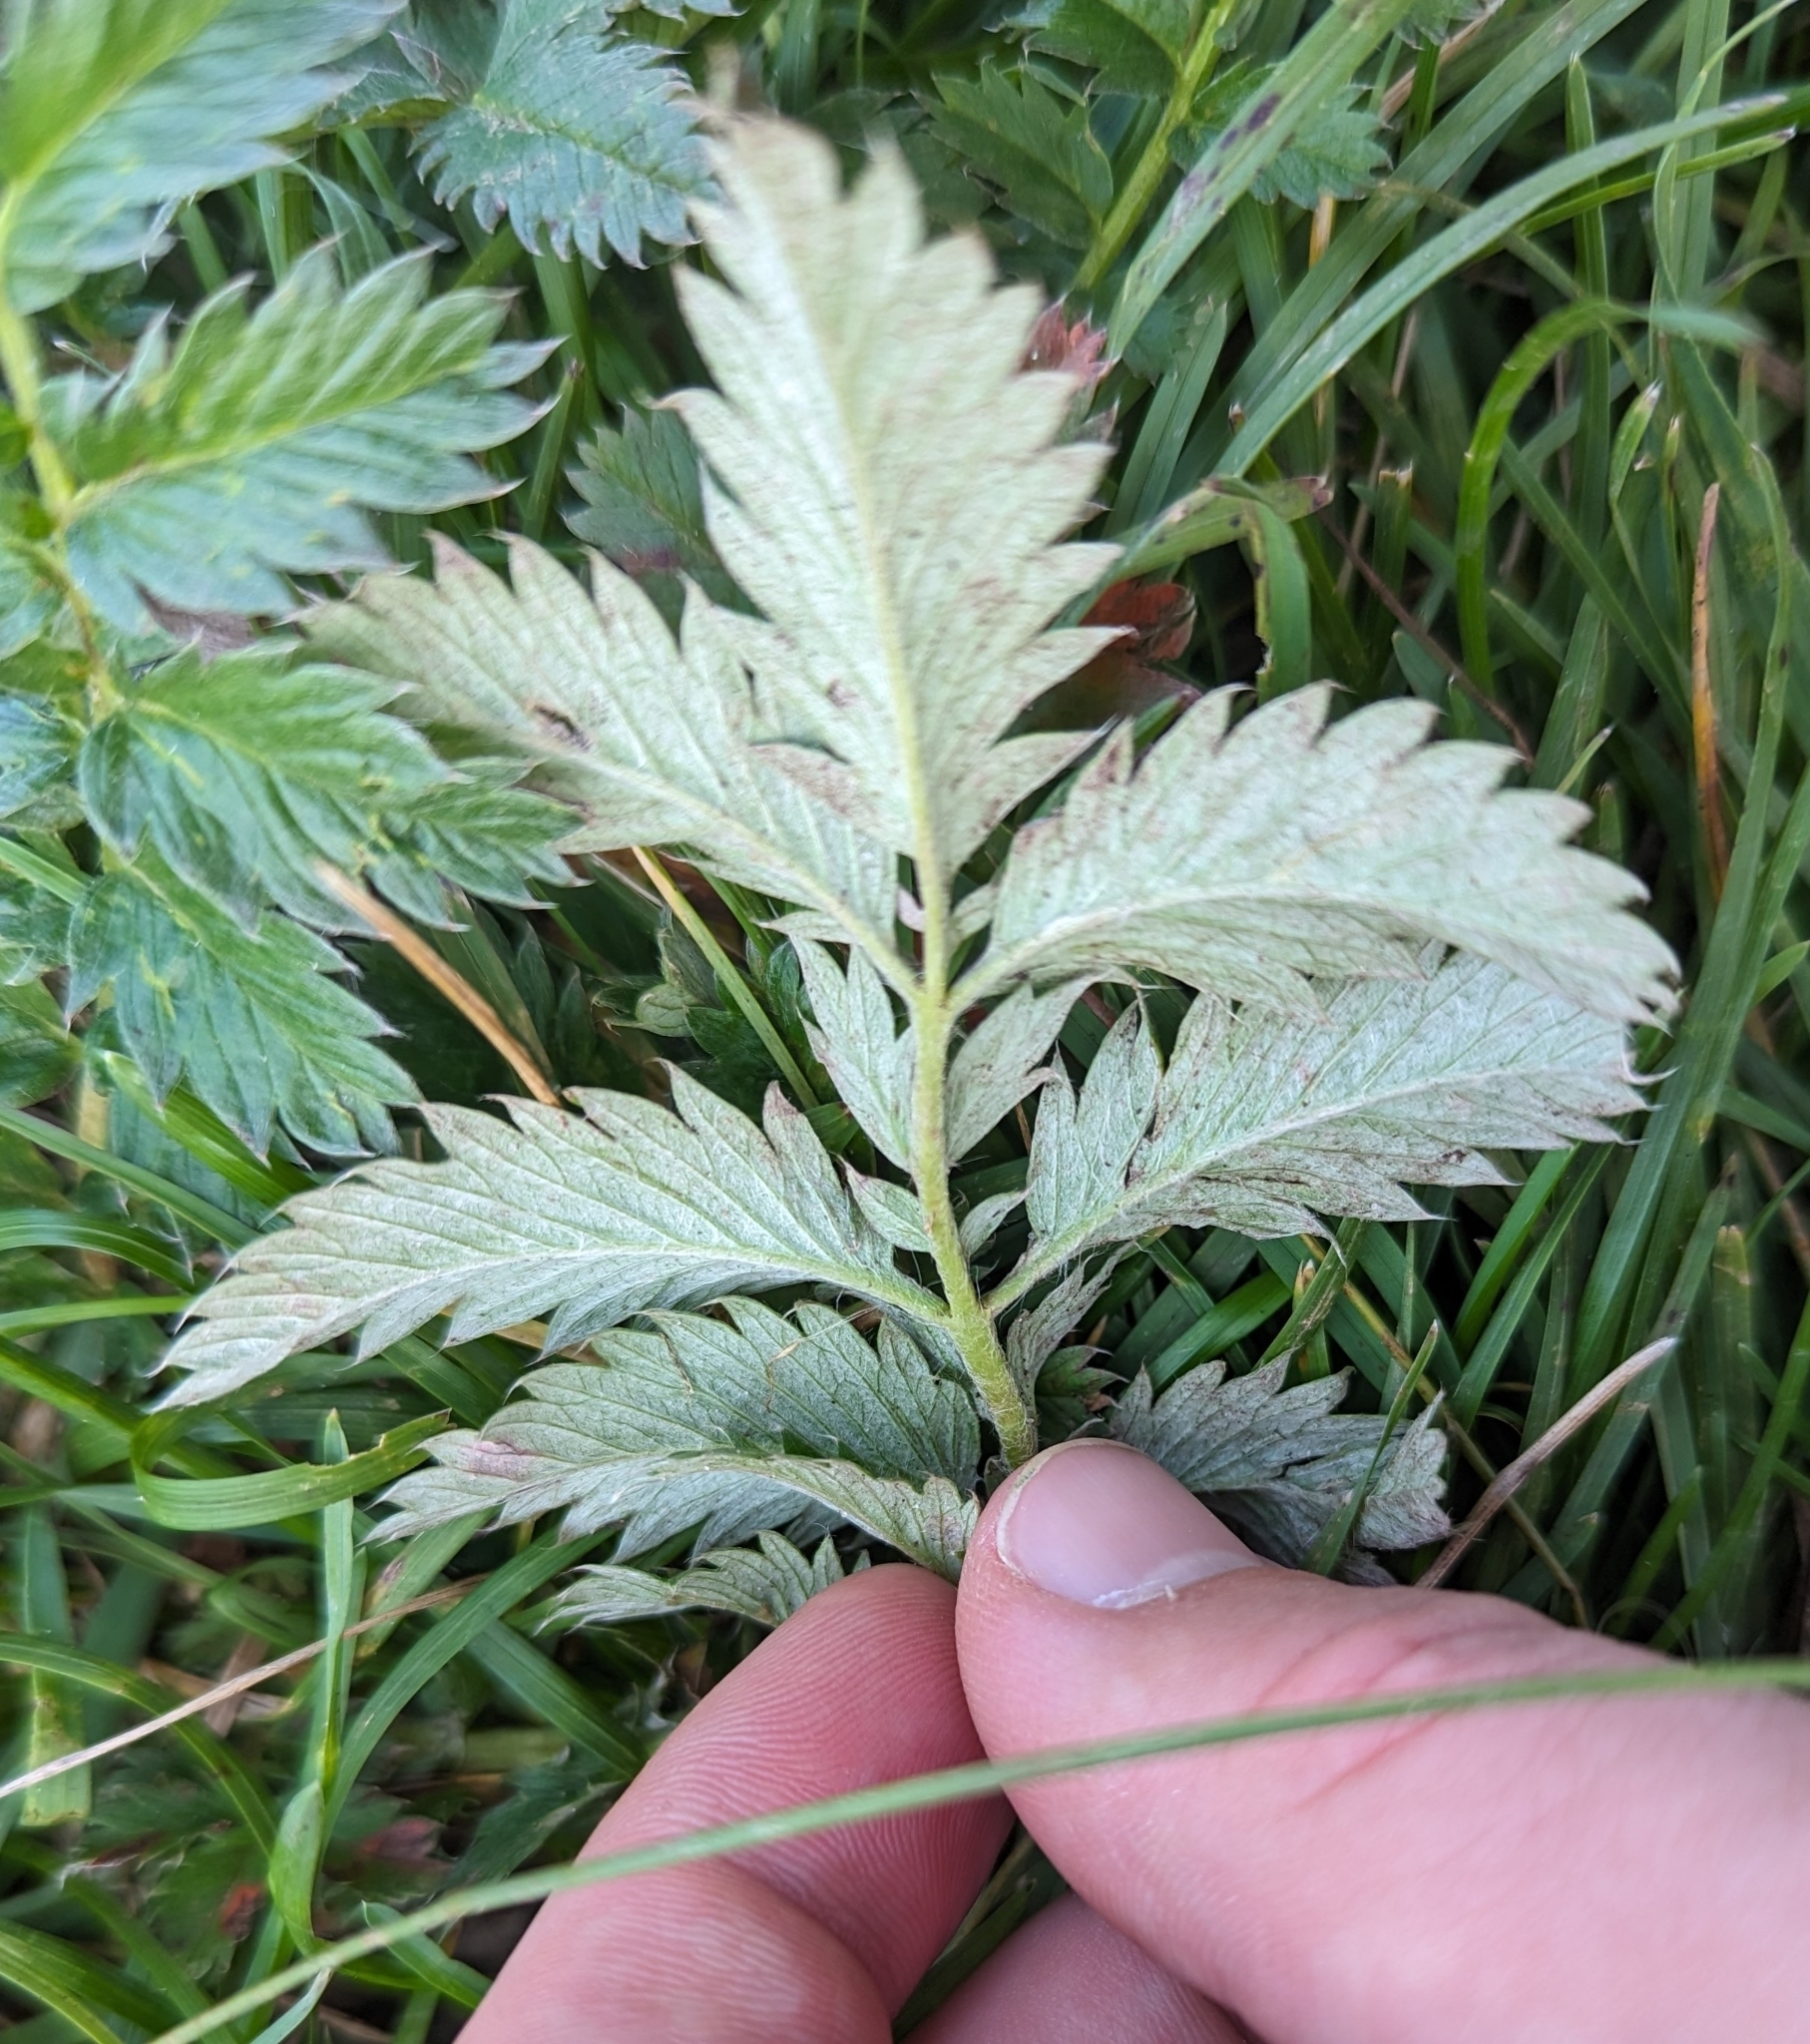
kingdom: Plantae
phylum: Tracheophyta
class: Magnoliopsida
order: Rosales
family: Rosaceae
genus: Argentina
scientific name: Argentina anserina
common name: Common silverweed
